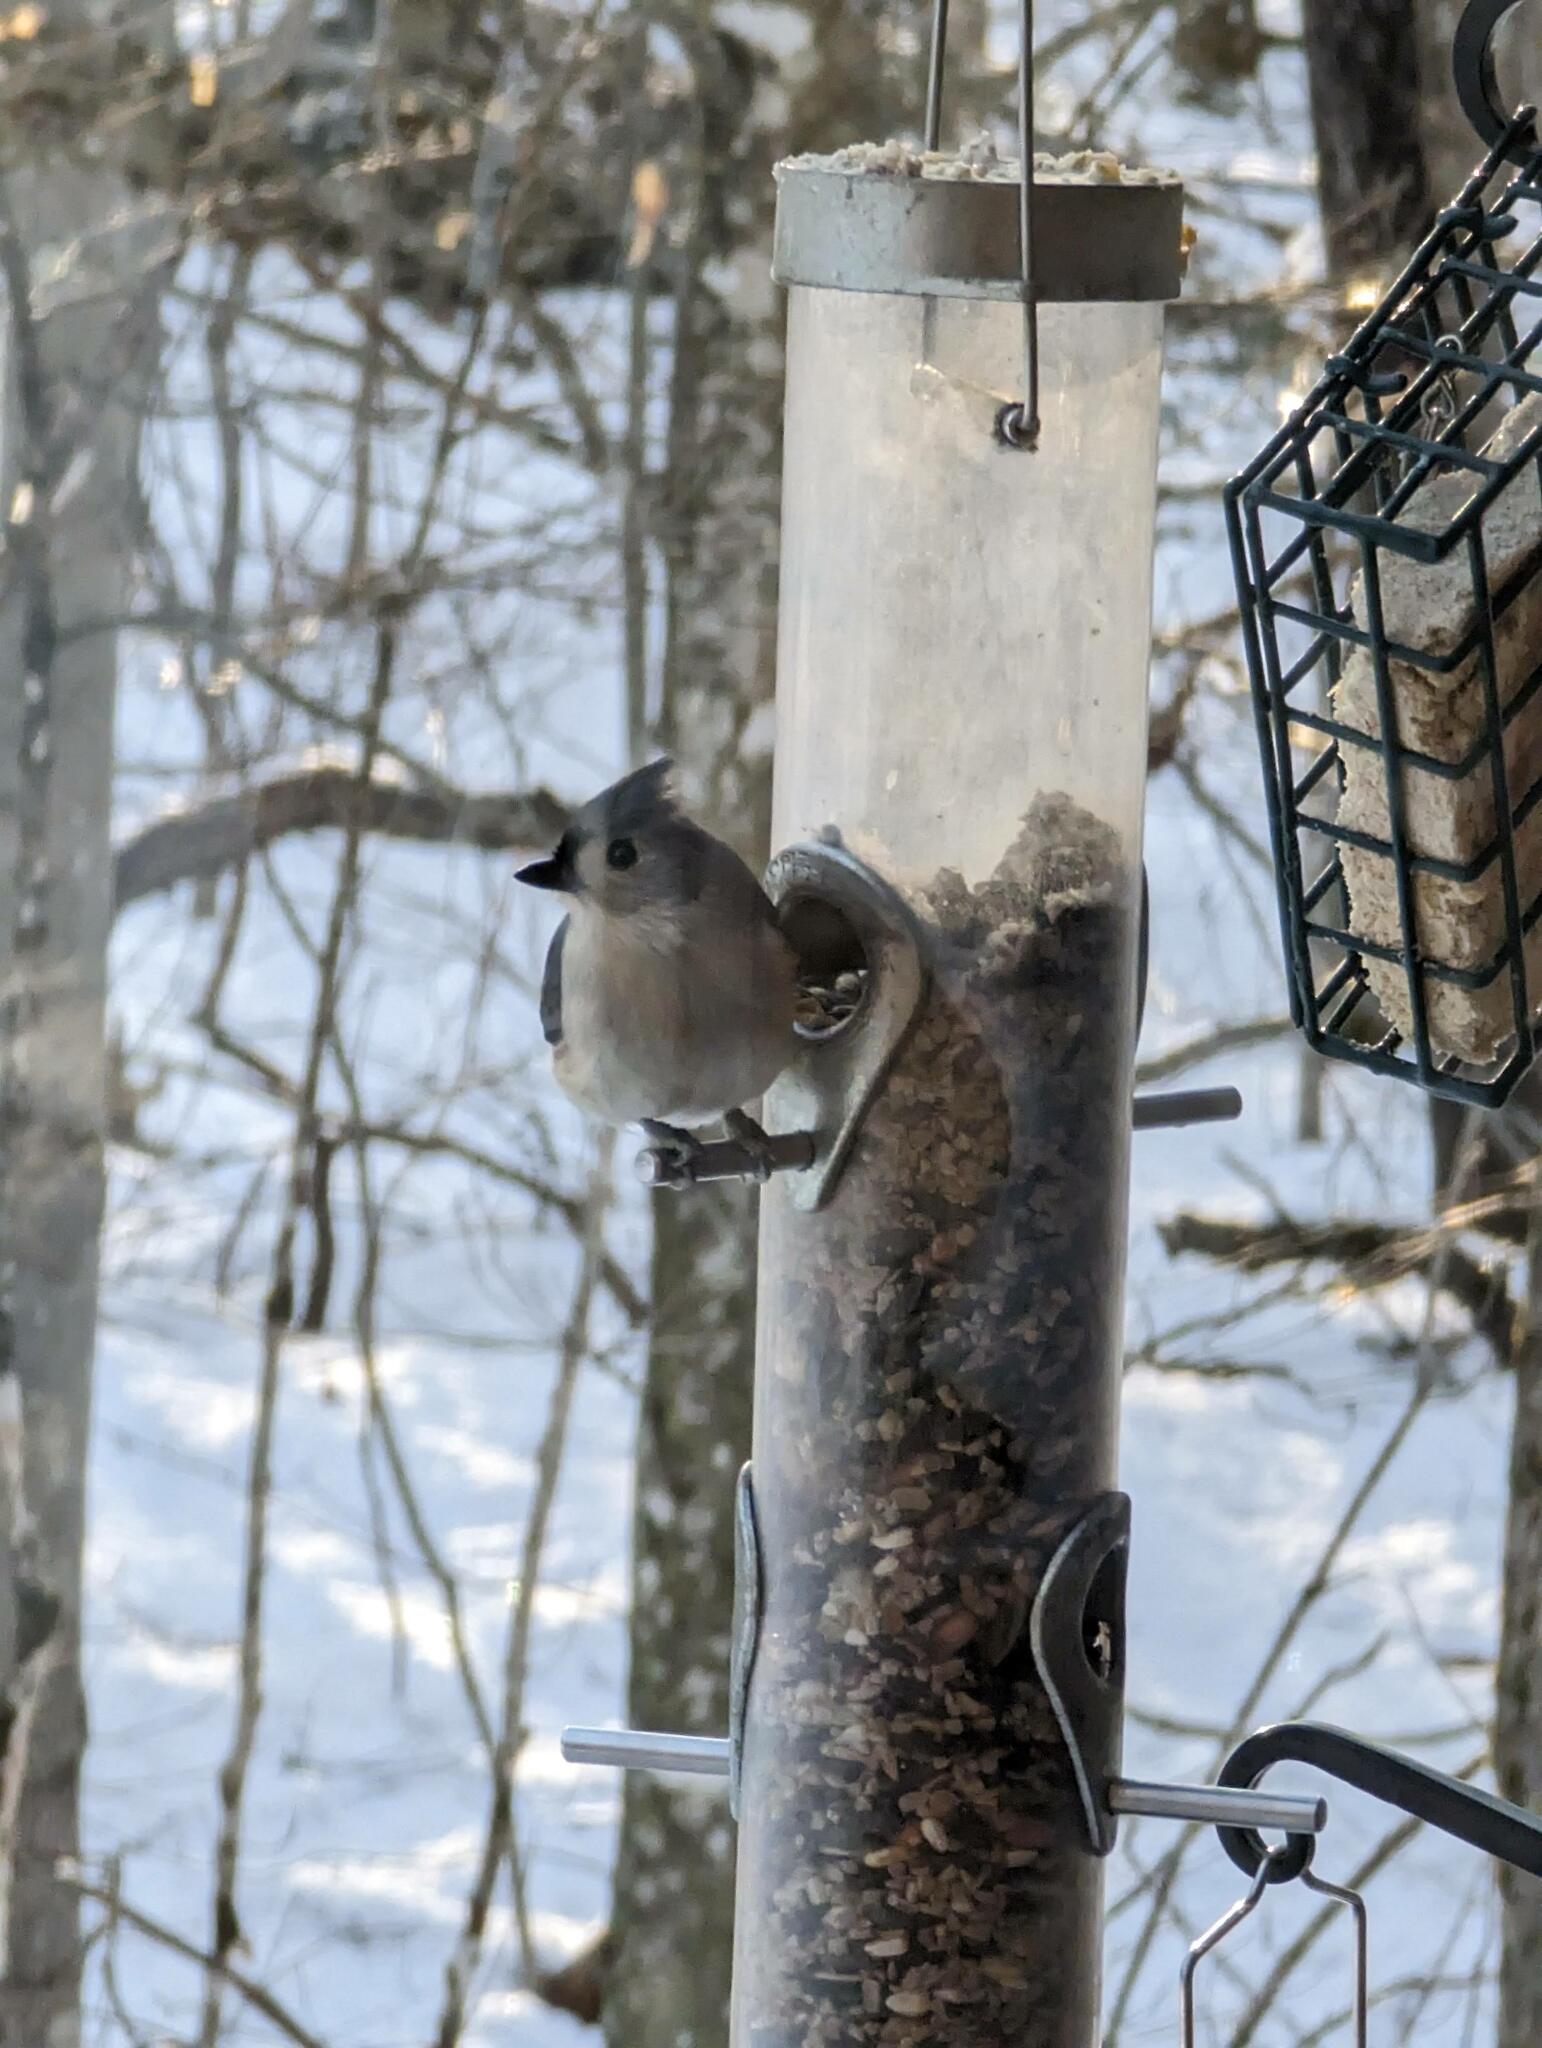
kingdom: Animalia
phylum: Chordata
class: Aves
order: Passeriformes
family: Paridae
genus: Baeolophus
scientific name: Baeolophus bicolor
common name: Tufted titmouse
